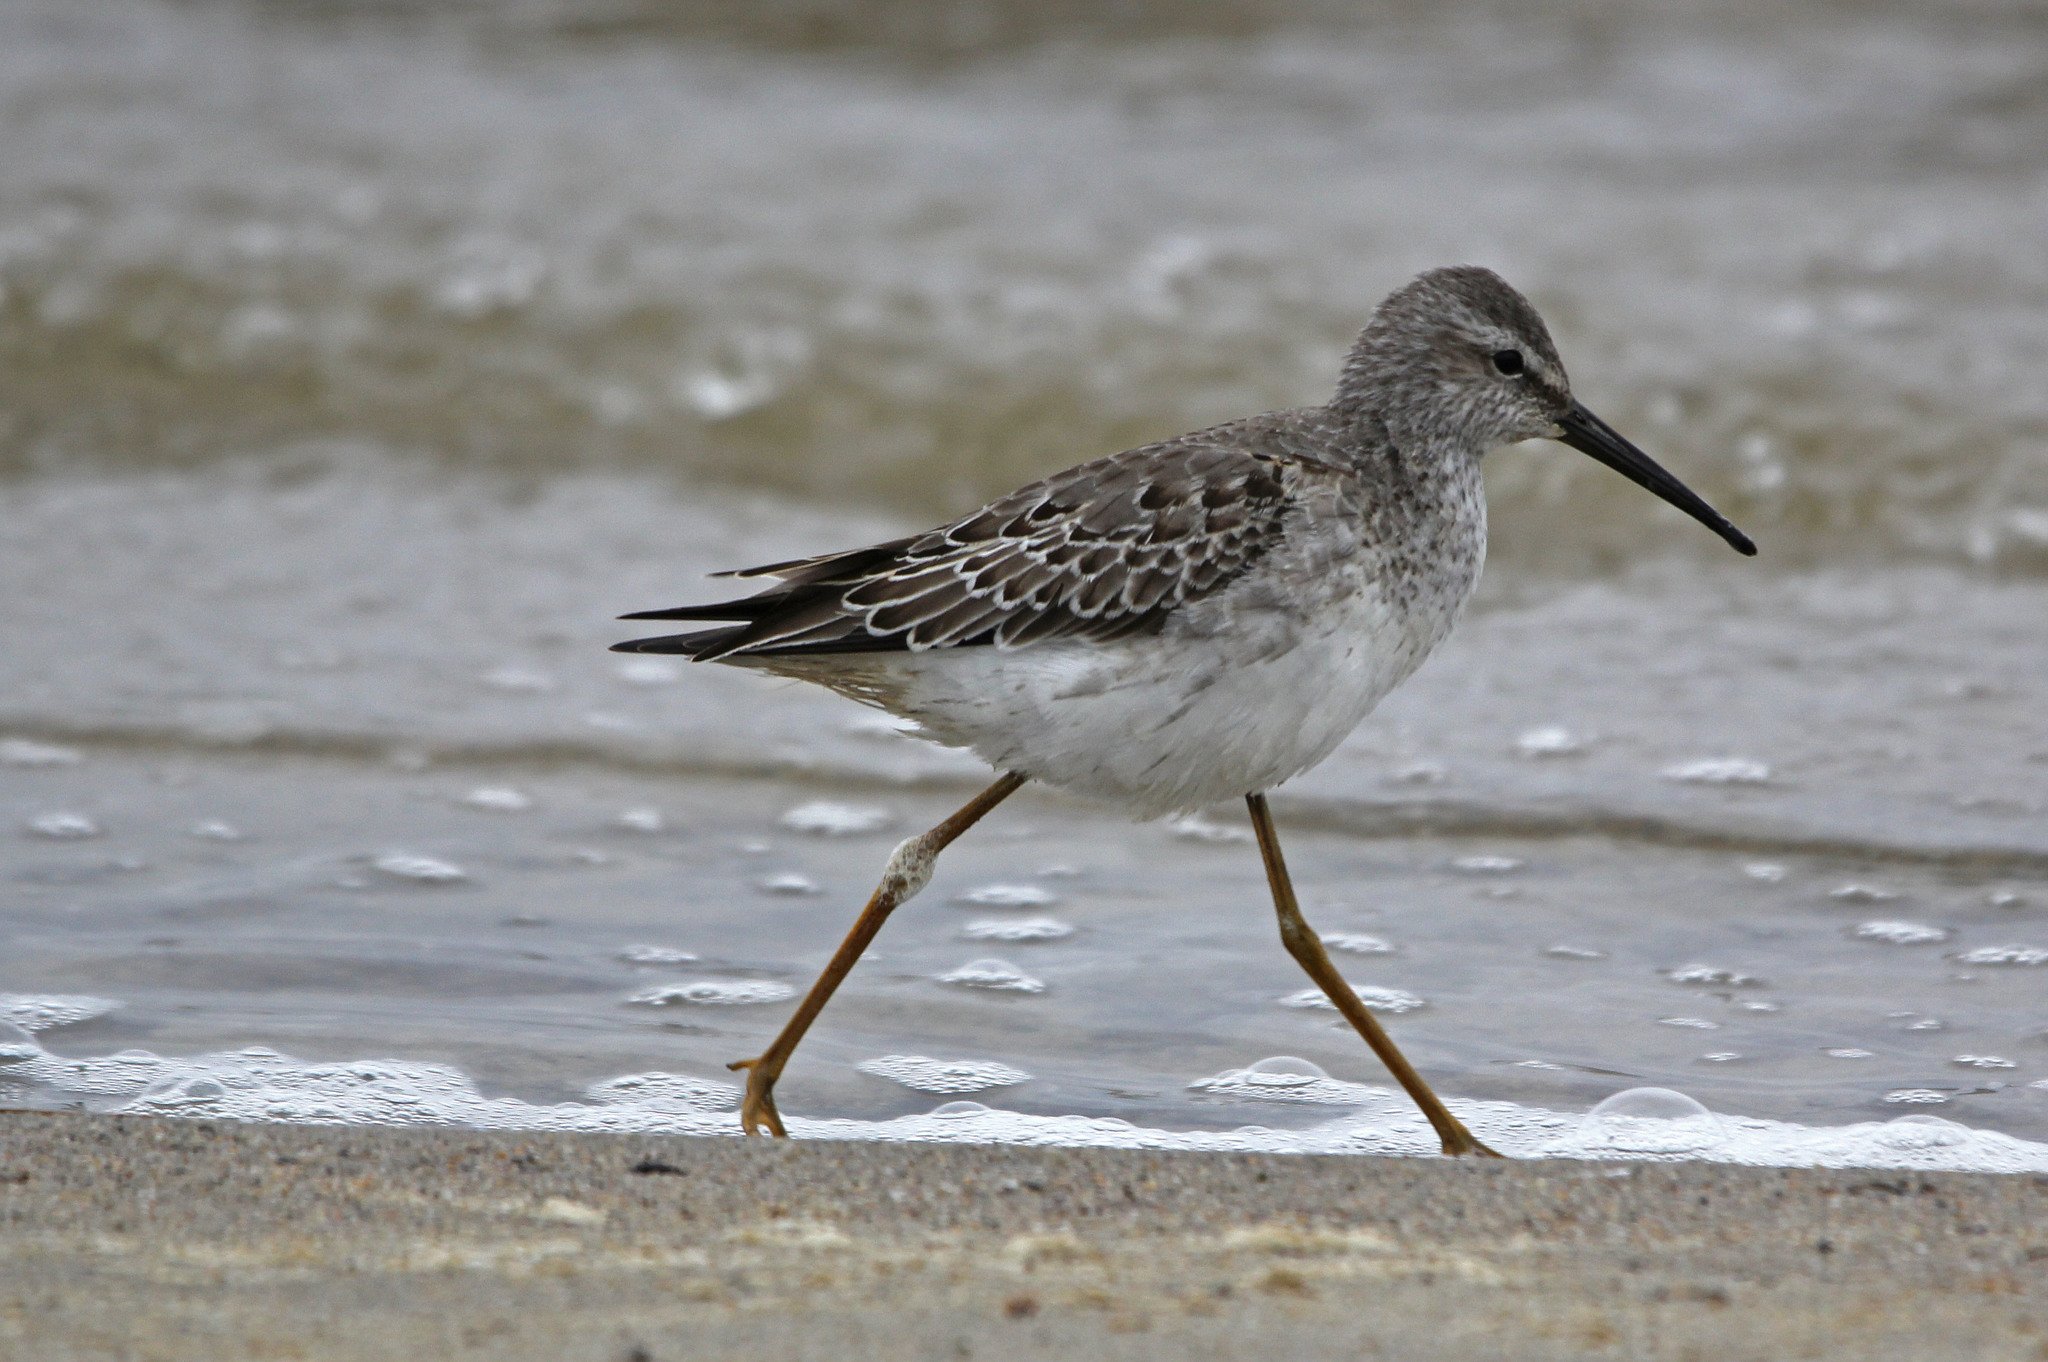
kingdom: Animalia
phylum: Chordata
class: Aves
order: Charadriiformes
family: Scolopacidae
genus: Calidris
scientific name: Calidris himantopus
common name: Stilt sandpiper
